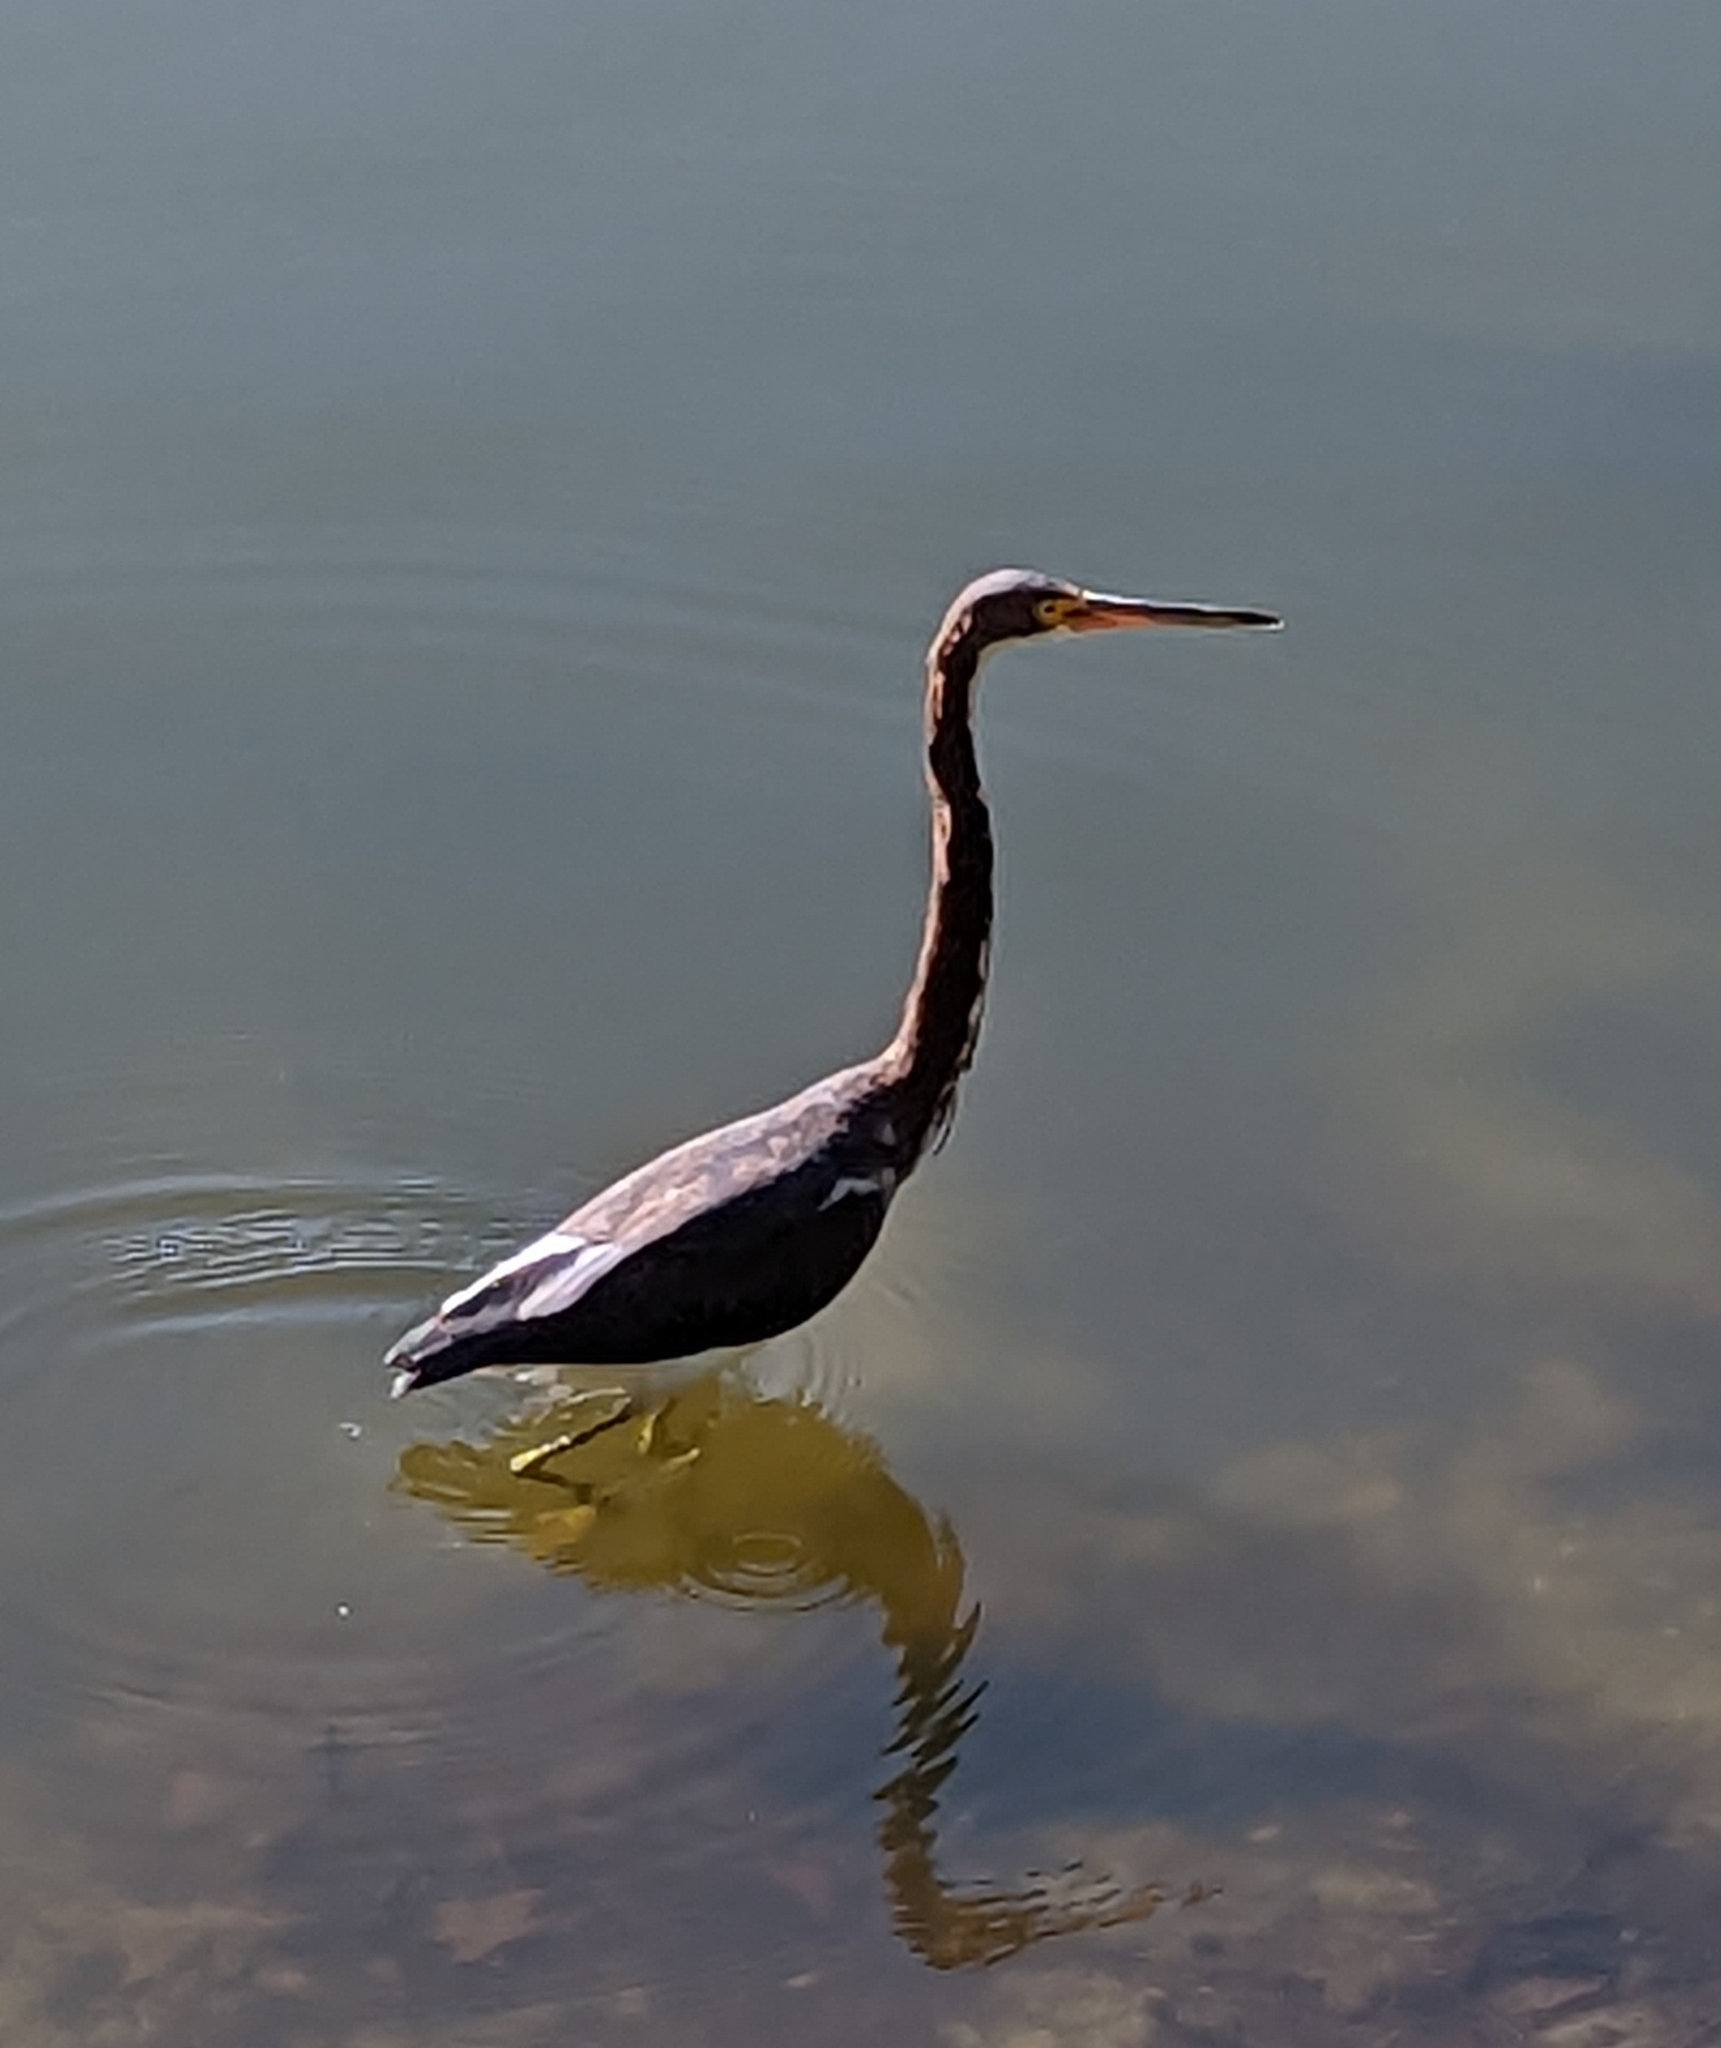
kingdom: Animalia
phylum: Chordata
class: Aves
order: Pelecaniformes
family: Ardeidae
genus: Egretta
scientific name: Egretta tricolor
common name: Tricolored heron
